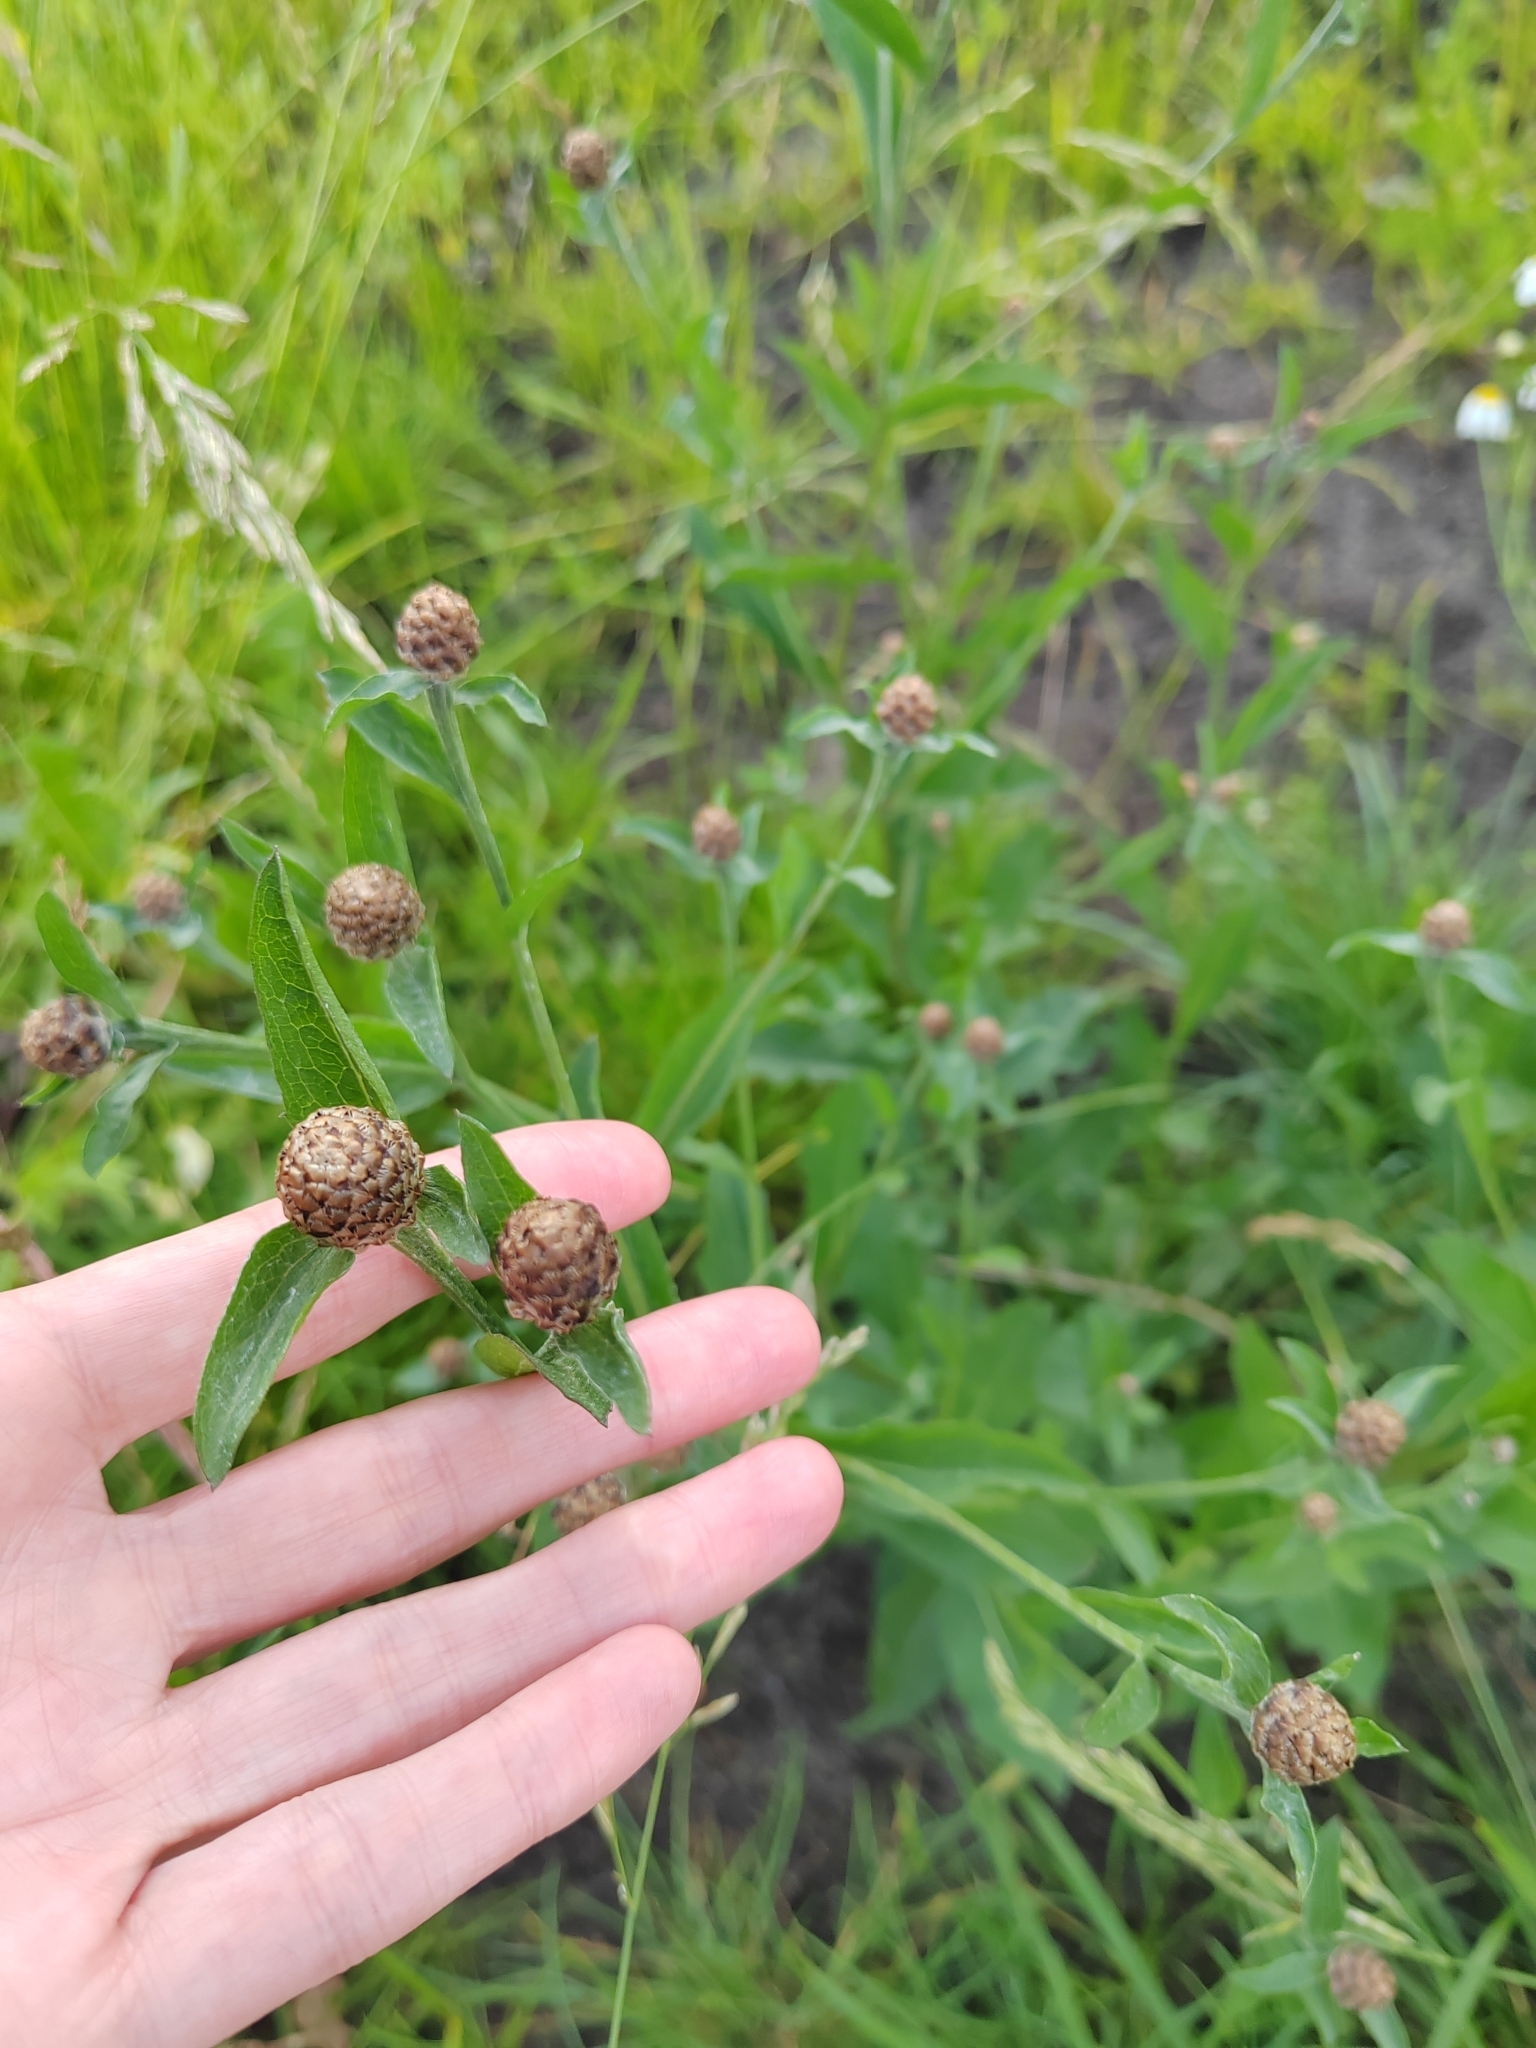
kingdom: Plantae
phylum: Tracheophyta
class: Magnoliopsida
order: Asterales
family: Asteraceae
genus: Centaurea
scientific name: Centaurea jacea
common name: Brown knapweed
